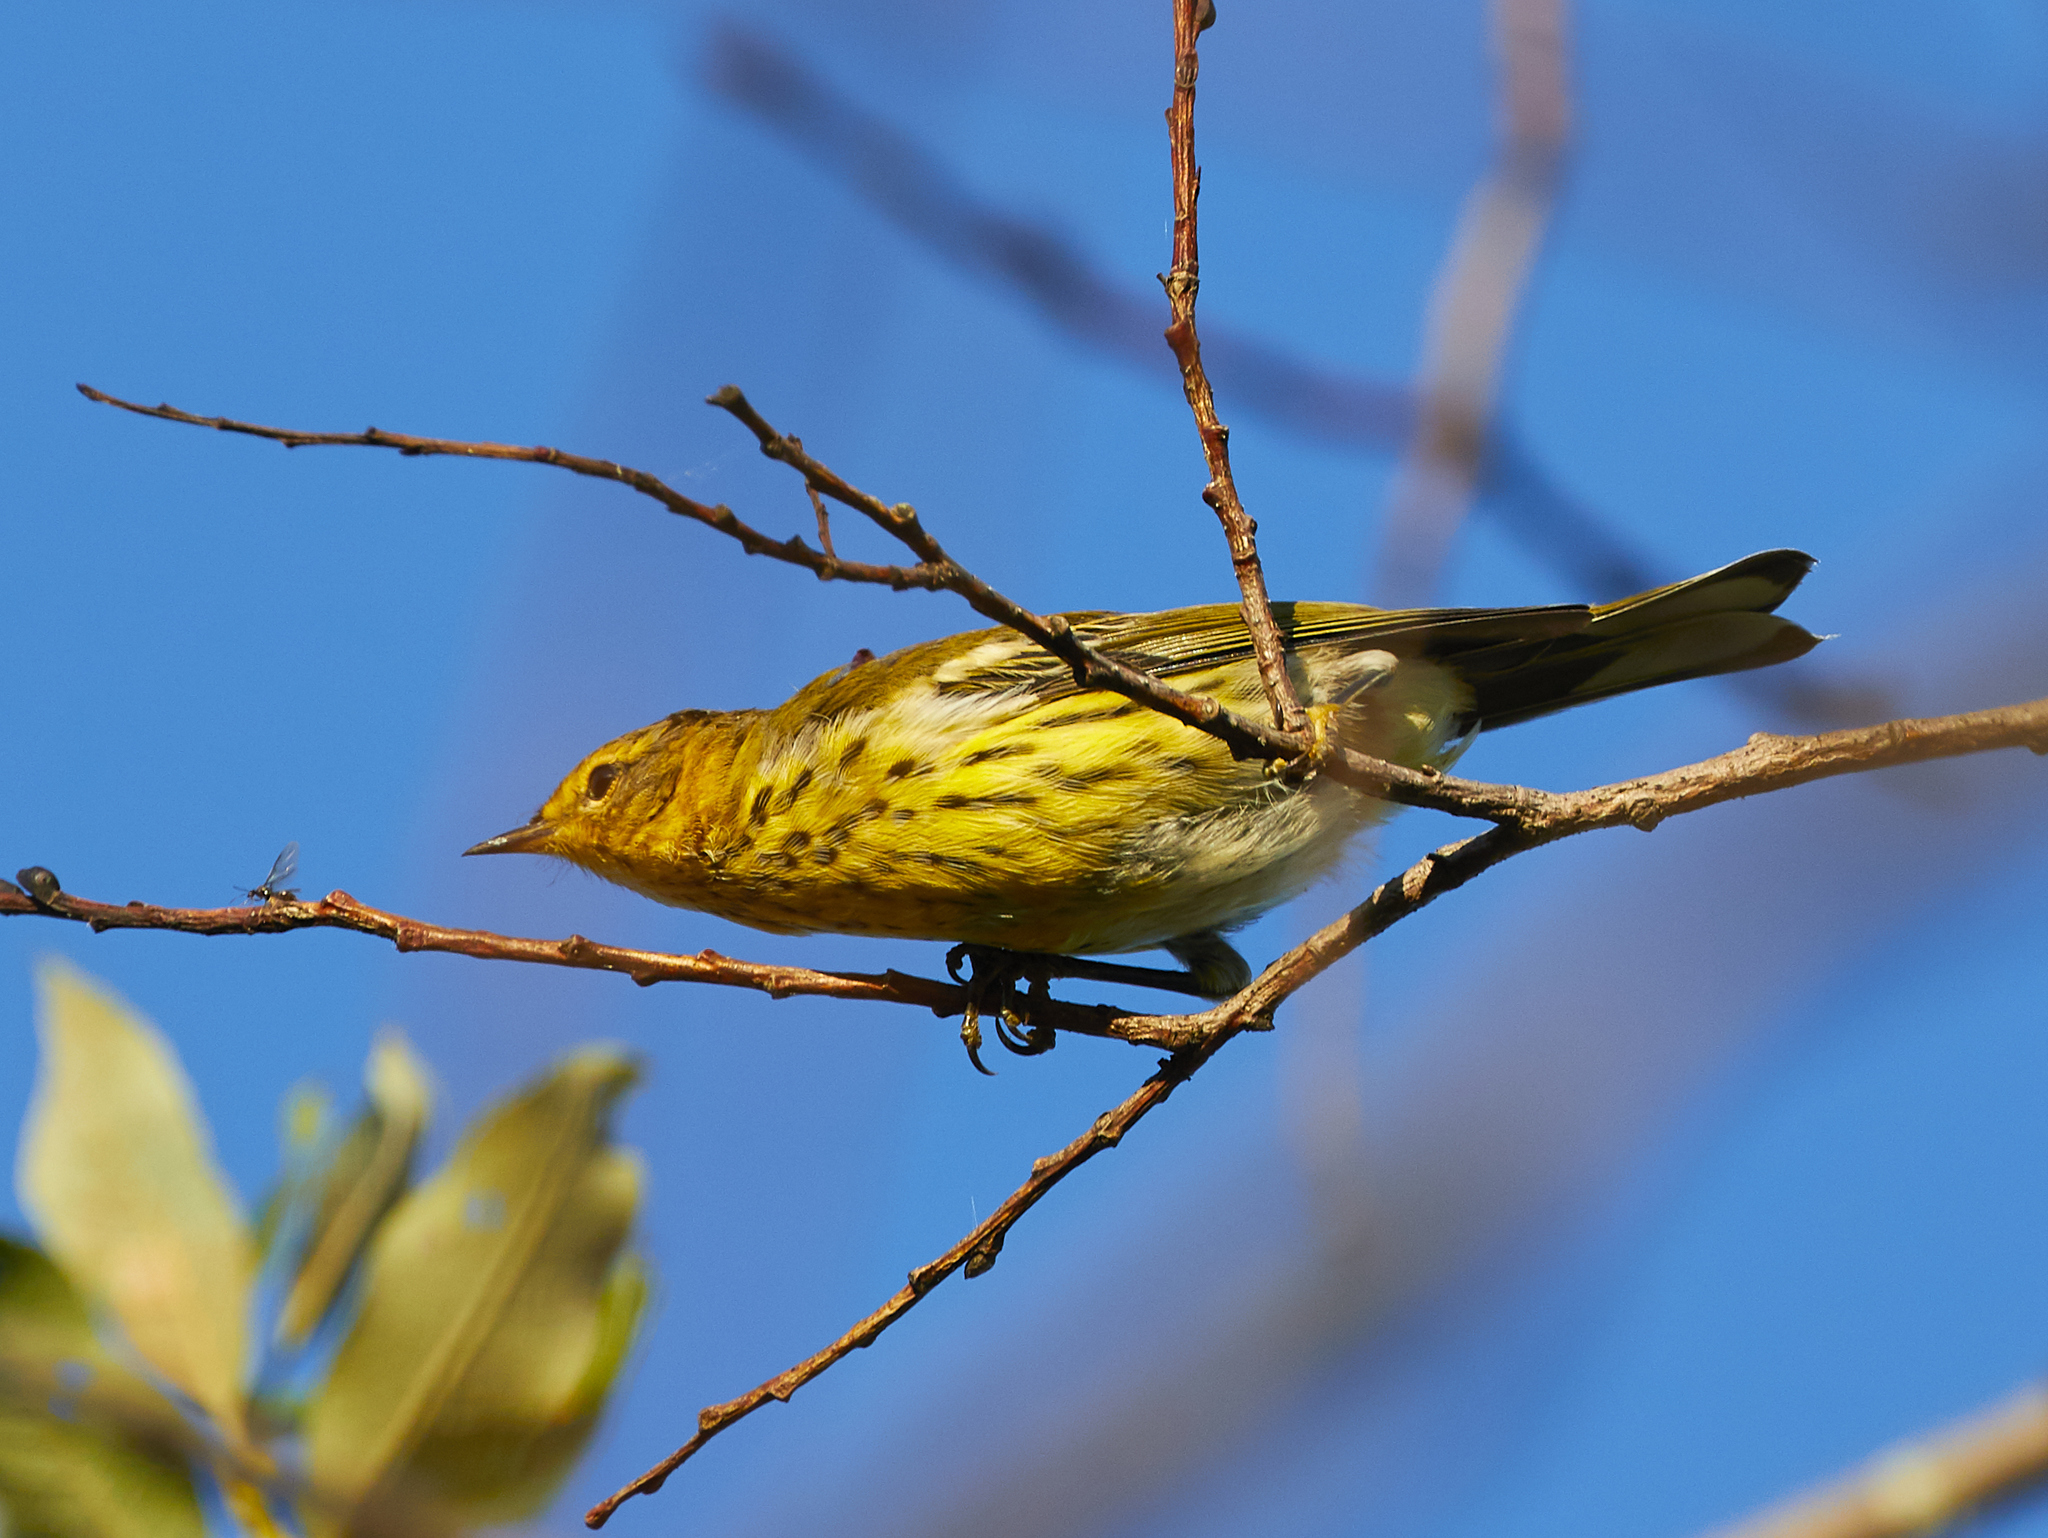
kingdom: Animalia
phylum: Chordata
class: Aves
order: Passeriformes
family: Parulidae
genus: Setophaga
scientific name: Setophaga tigrina
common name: Cape may warbler
